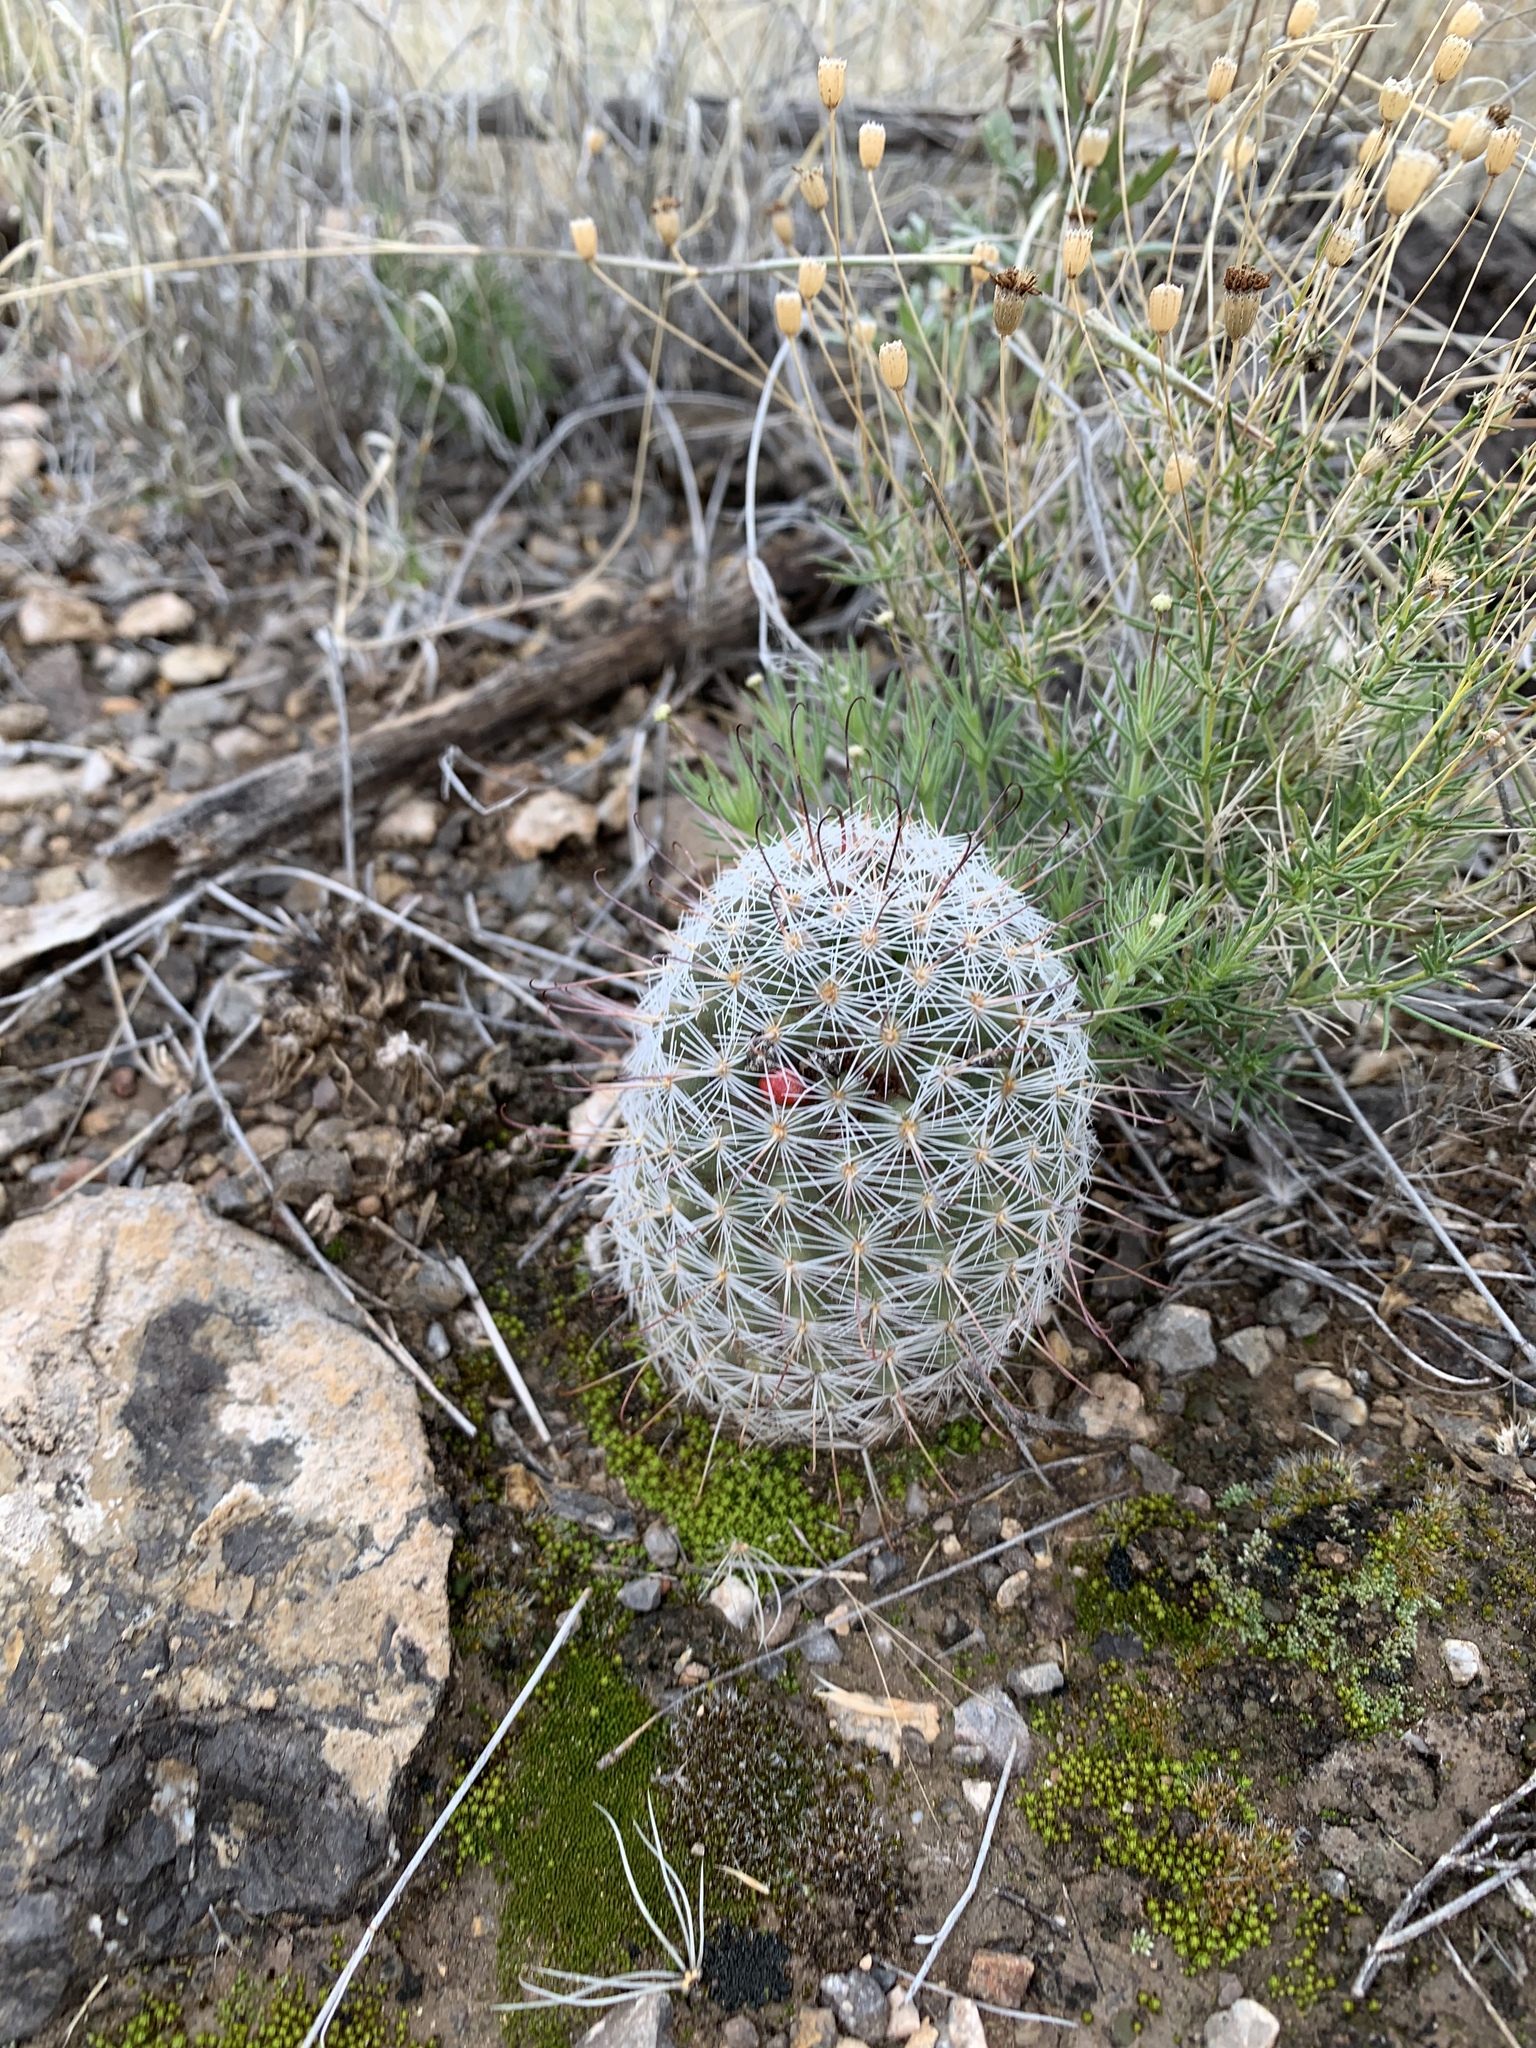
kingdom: Plantae
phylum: Tracheophyta
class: Magnoliopsida
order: Caryophyllales
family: Cactaceae
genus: Cochemiea
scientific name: Cochemiea grahamii
